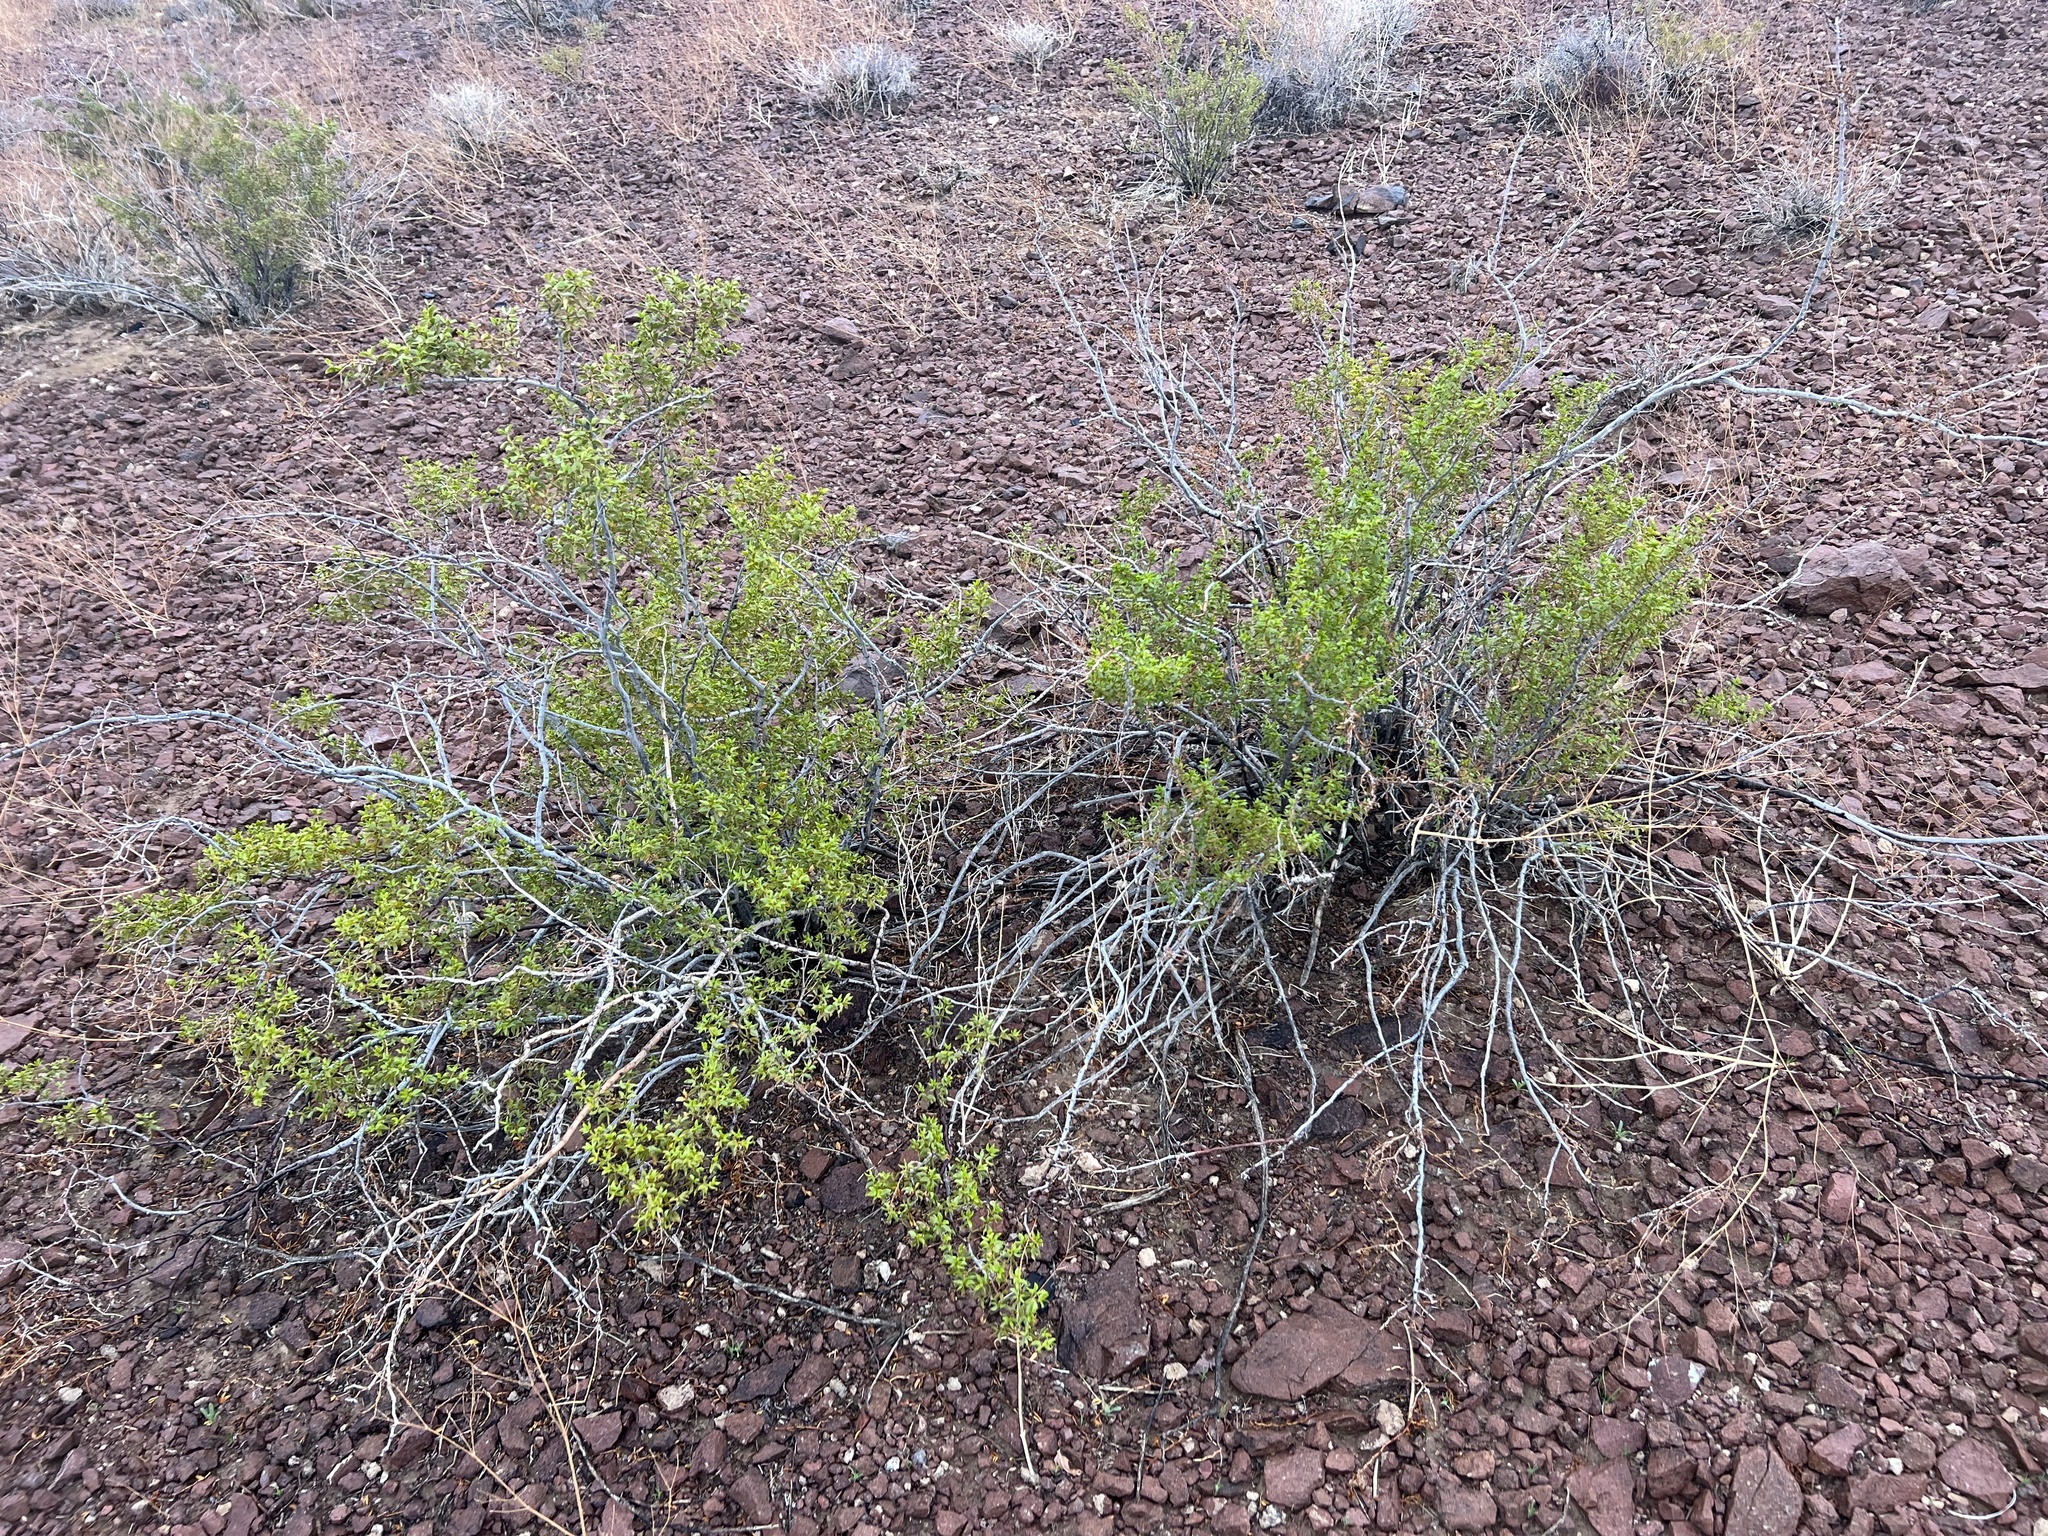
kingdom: Plantae
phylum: Tracheophyta
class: Magnoliopsida
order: Zygophyllales
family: Zygophyllaceae
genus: Larrea
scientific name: Larrea tridentata
